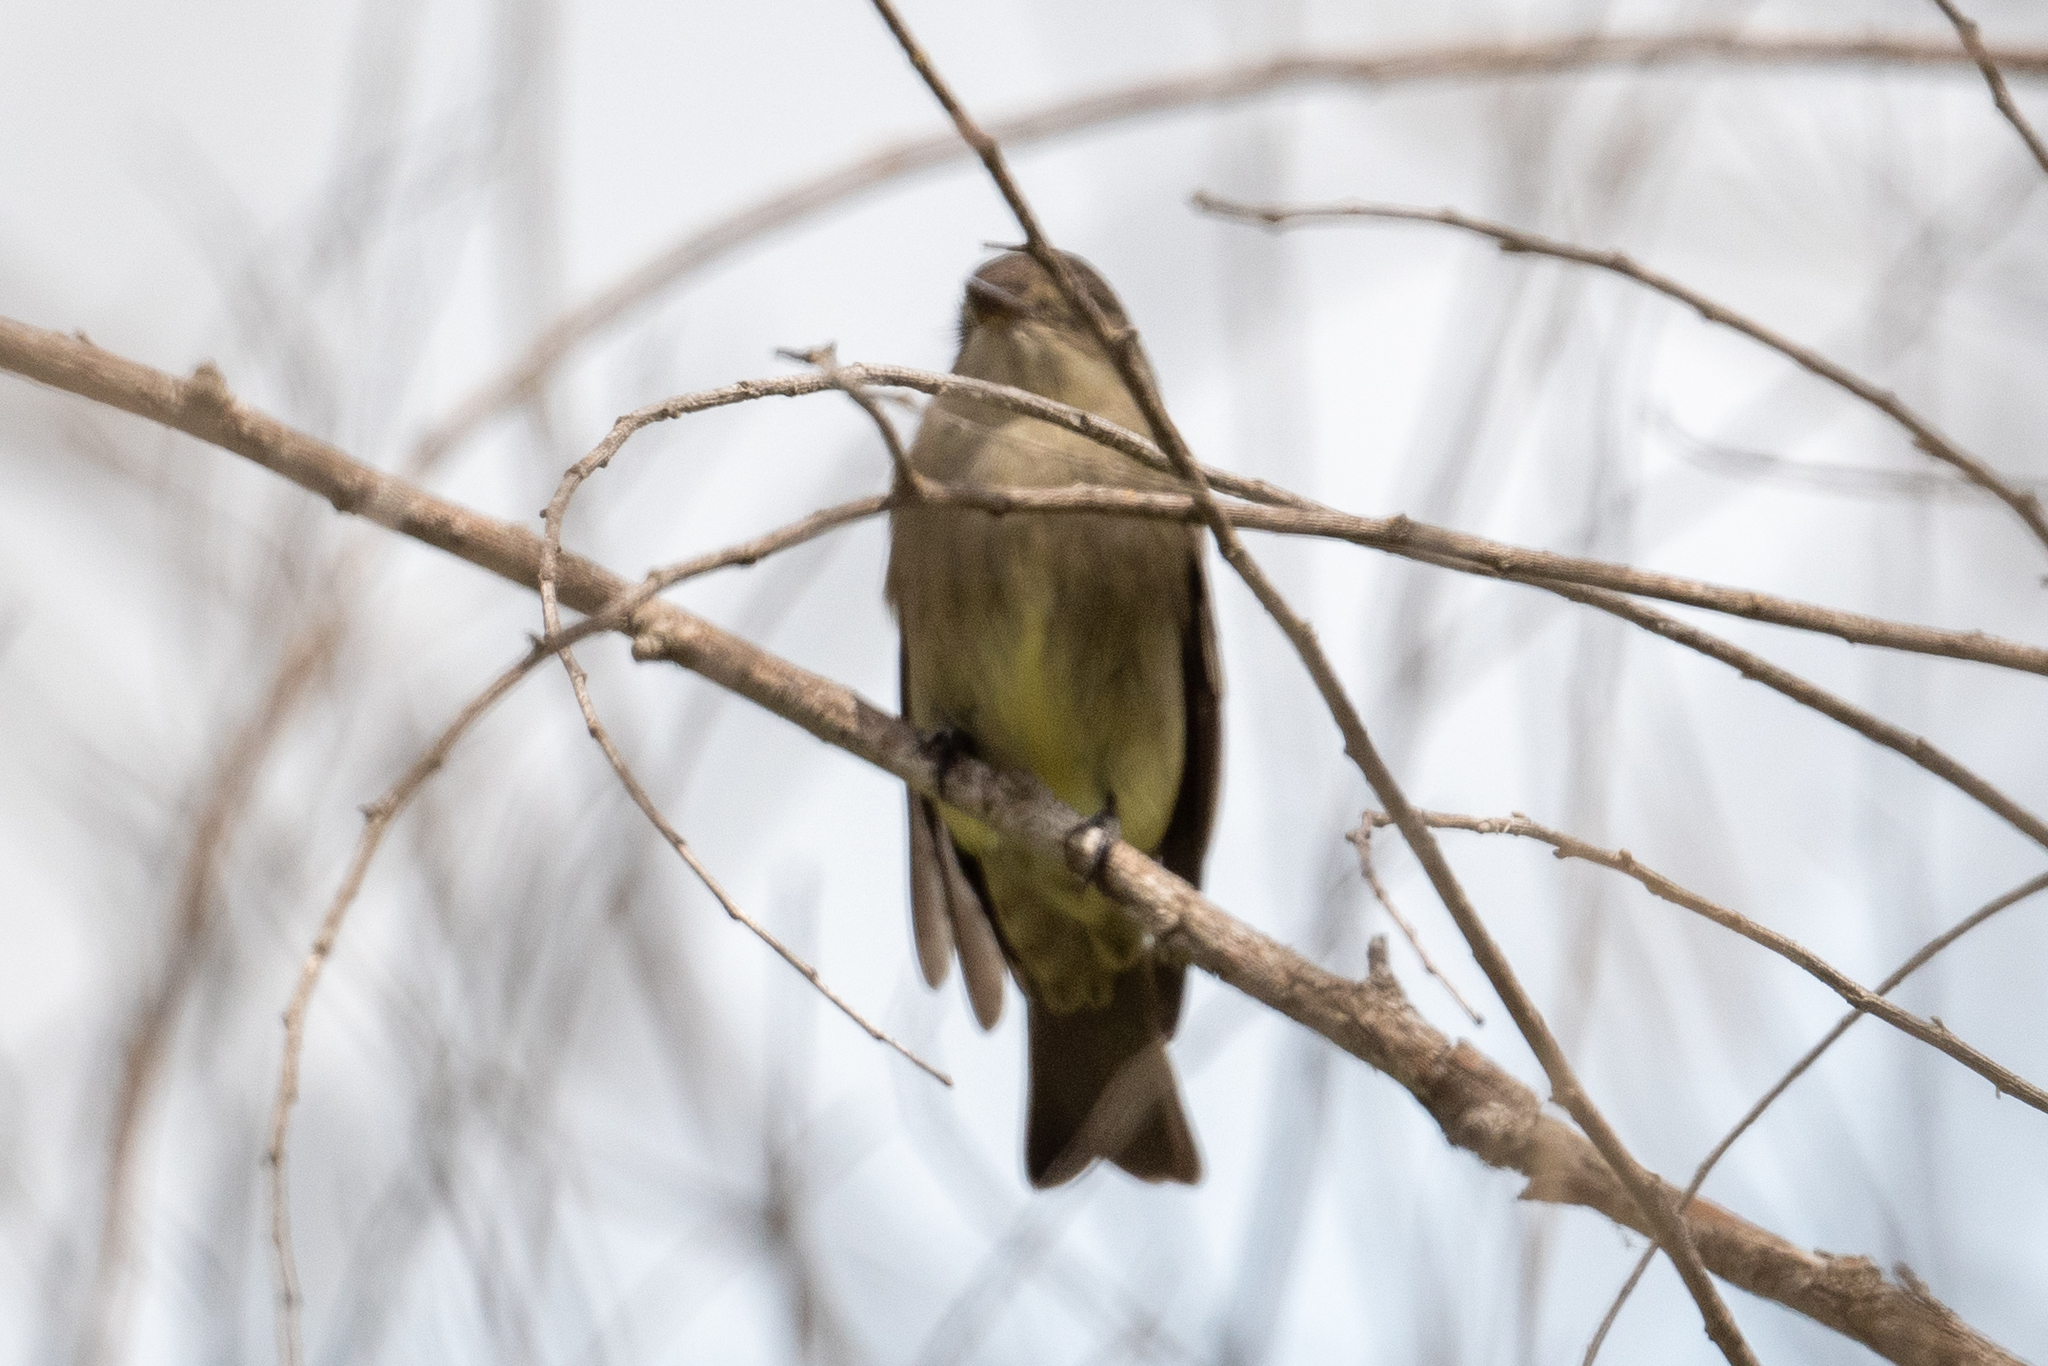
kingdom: Animalia
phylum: Chordata
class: Aves
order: Passeriformes
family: Tyrannidae
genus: Contopus
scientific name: Contopus sordidulus
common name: Western wood-pewee
